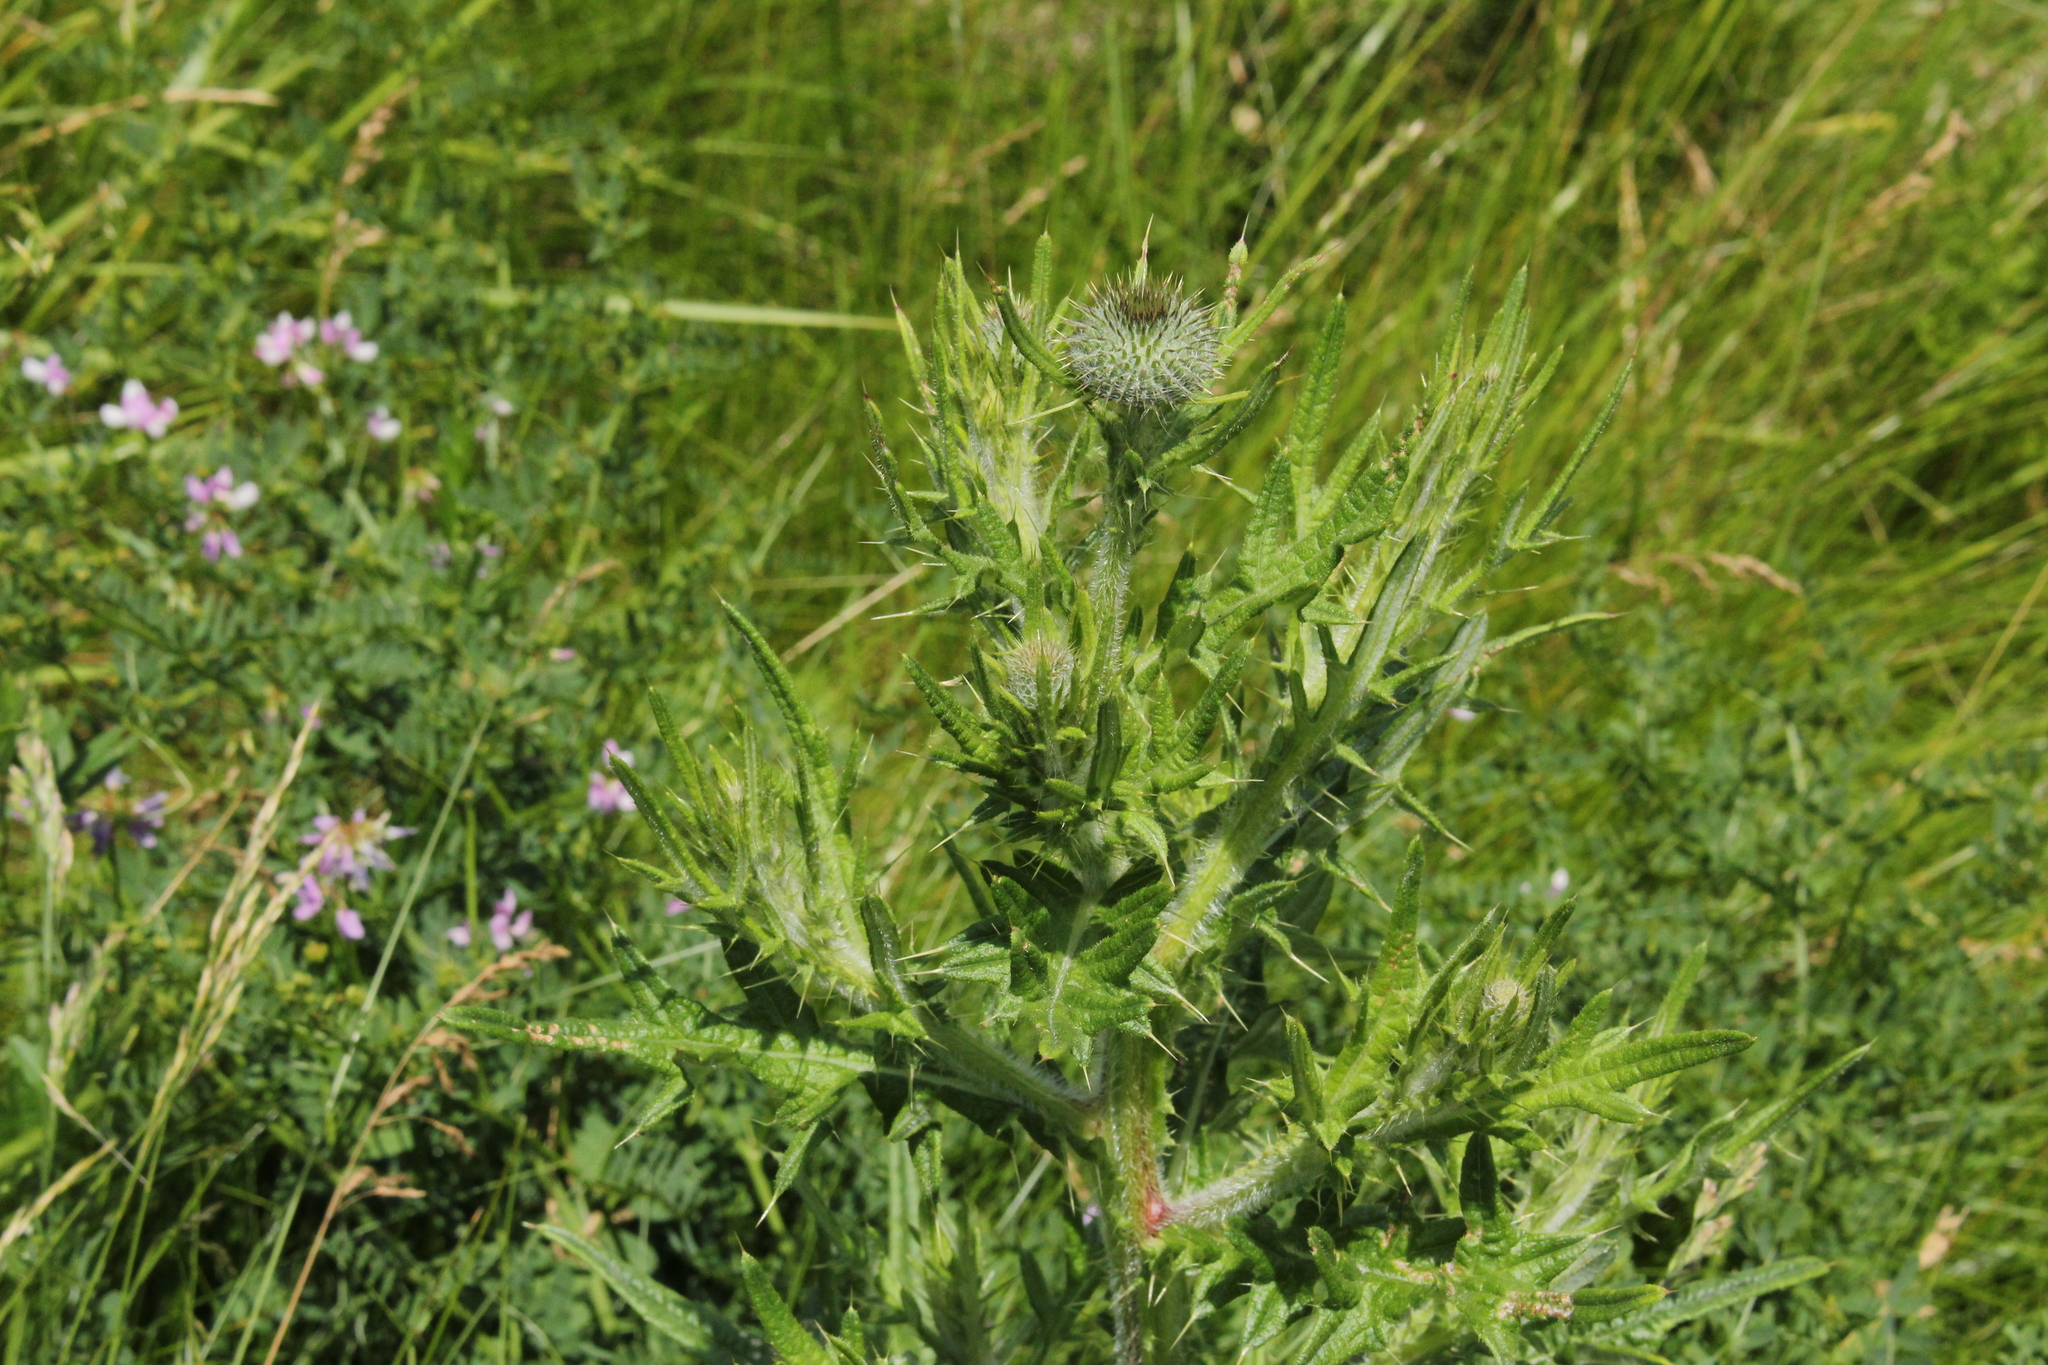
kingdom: Plantae
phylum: Tracheophyta
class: Magnoliopsida
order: Asterales
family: Asteraceae
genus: Cirsium
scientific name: Cirsium vulgare
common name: Bull thistle
